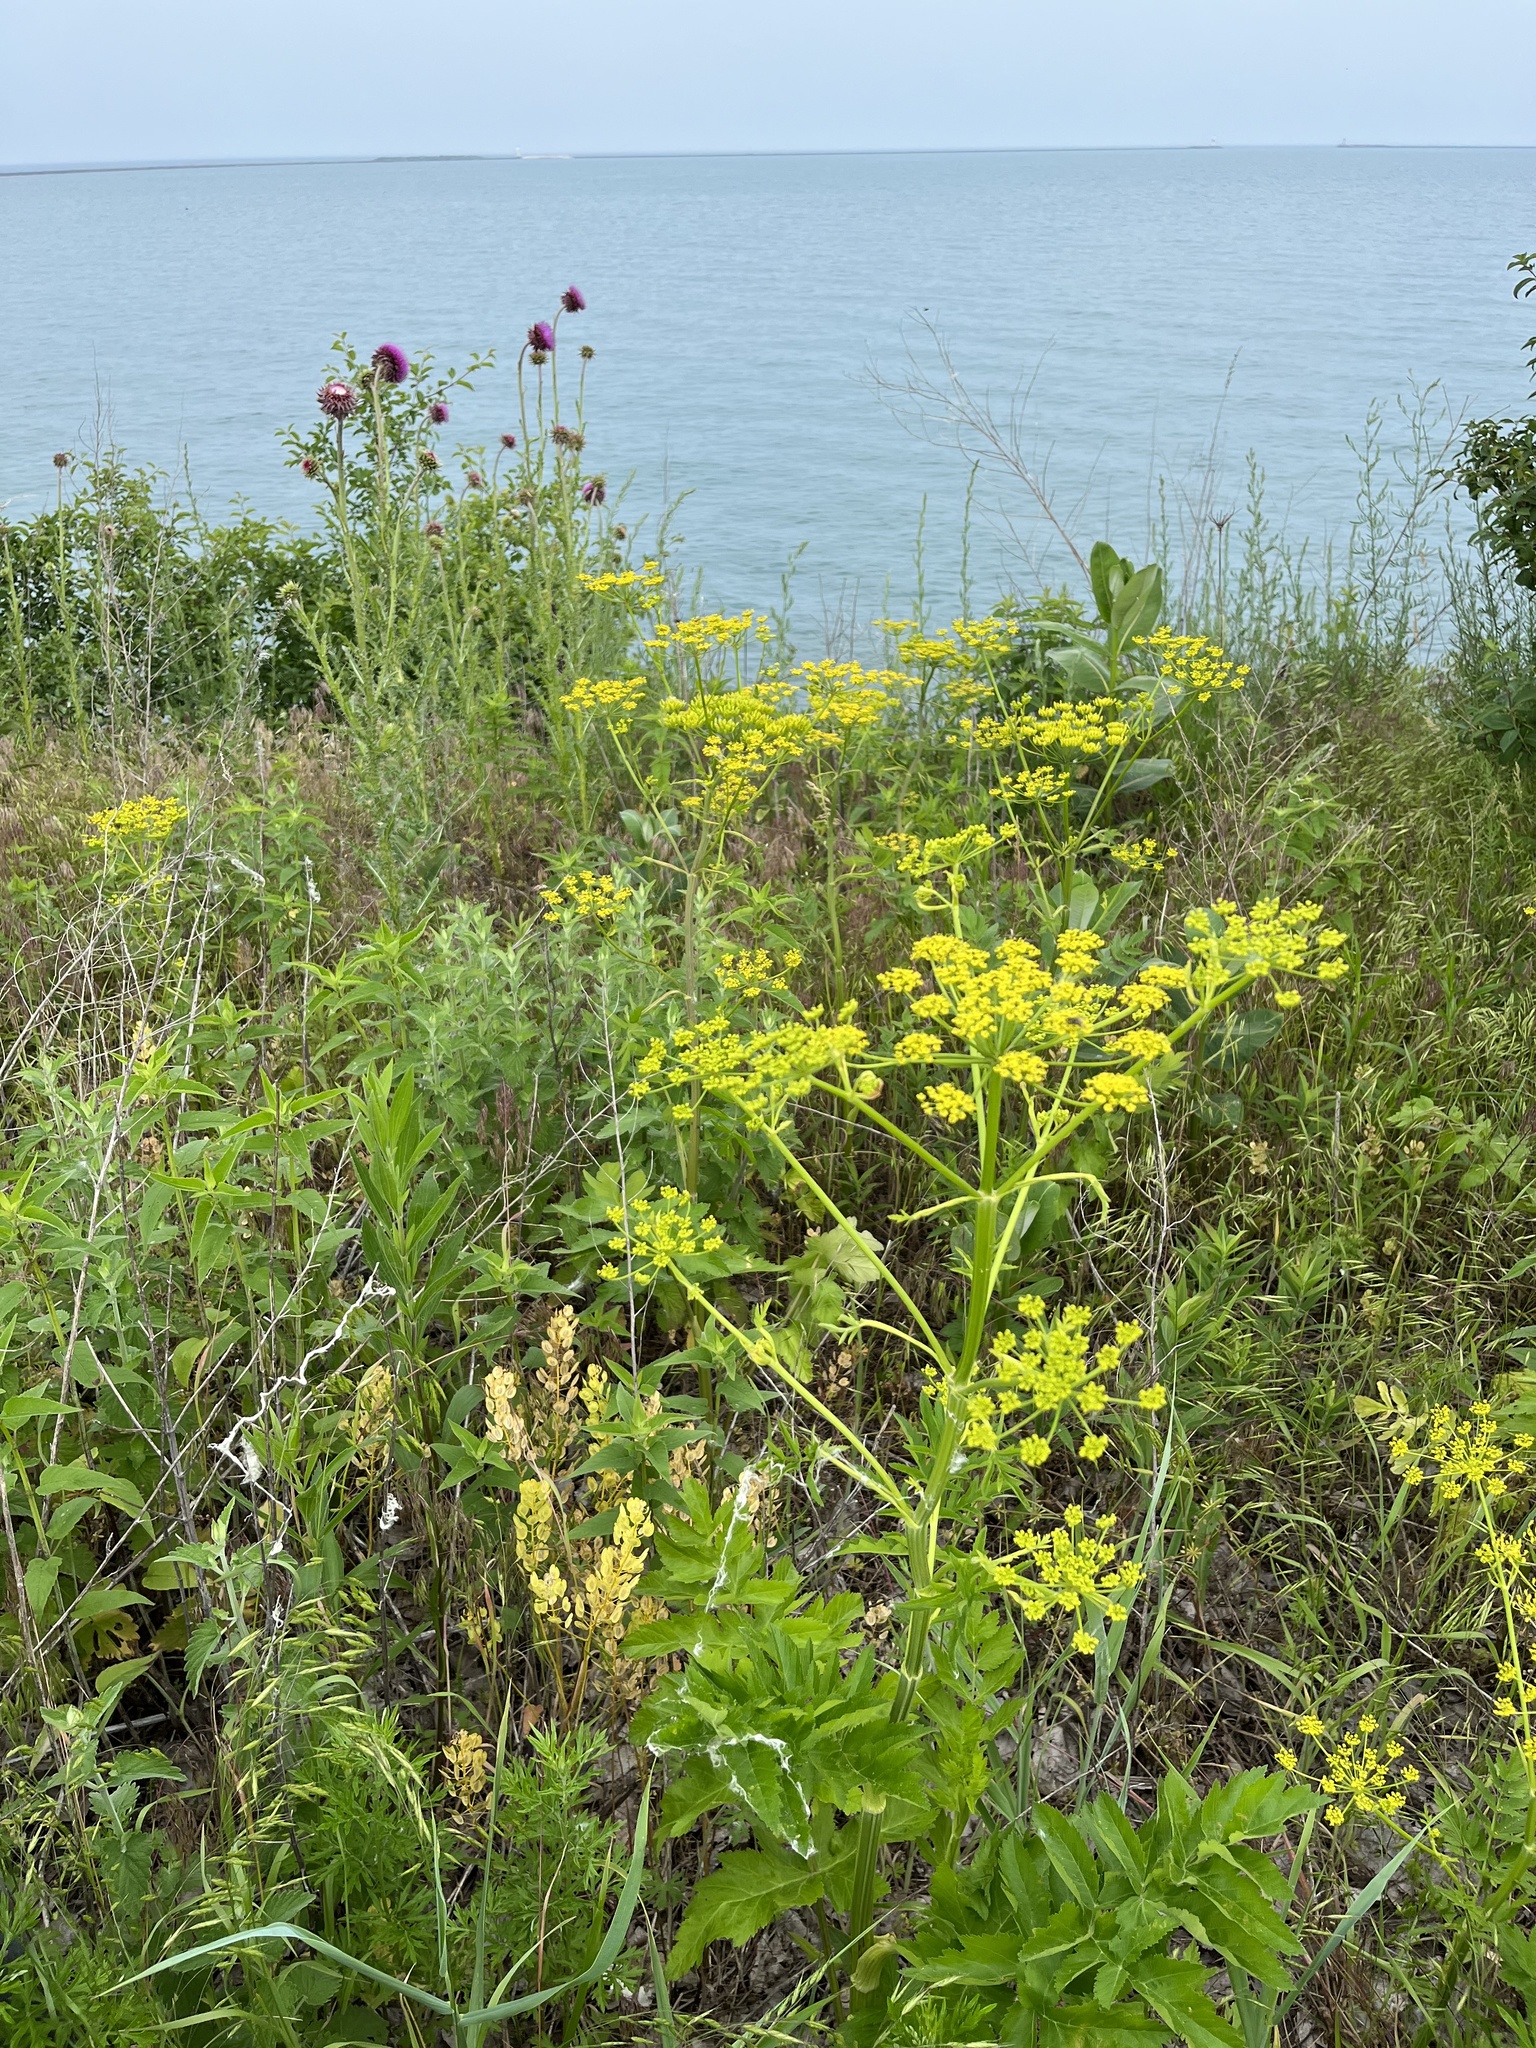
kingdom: Plantae
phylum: Tracheophyta
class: Magnoliopsida
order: Apiales
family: Apiaceae
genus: Pastinaca
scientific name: Pastinaca sativa
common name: Wild parsnip
